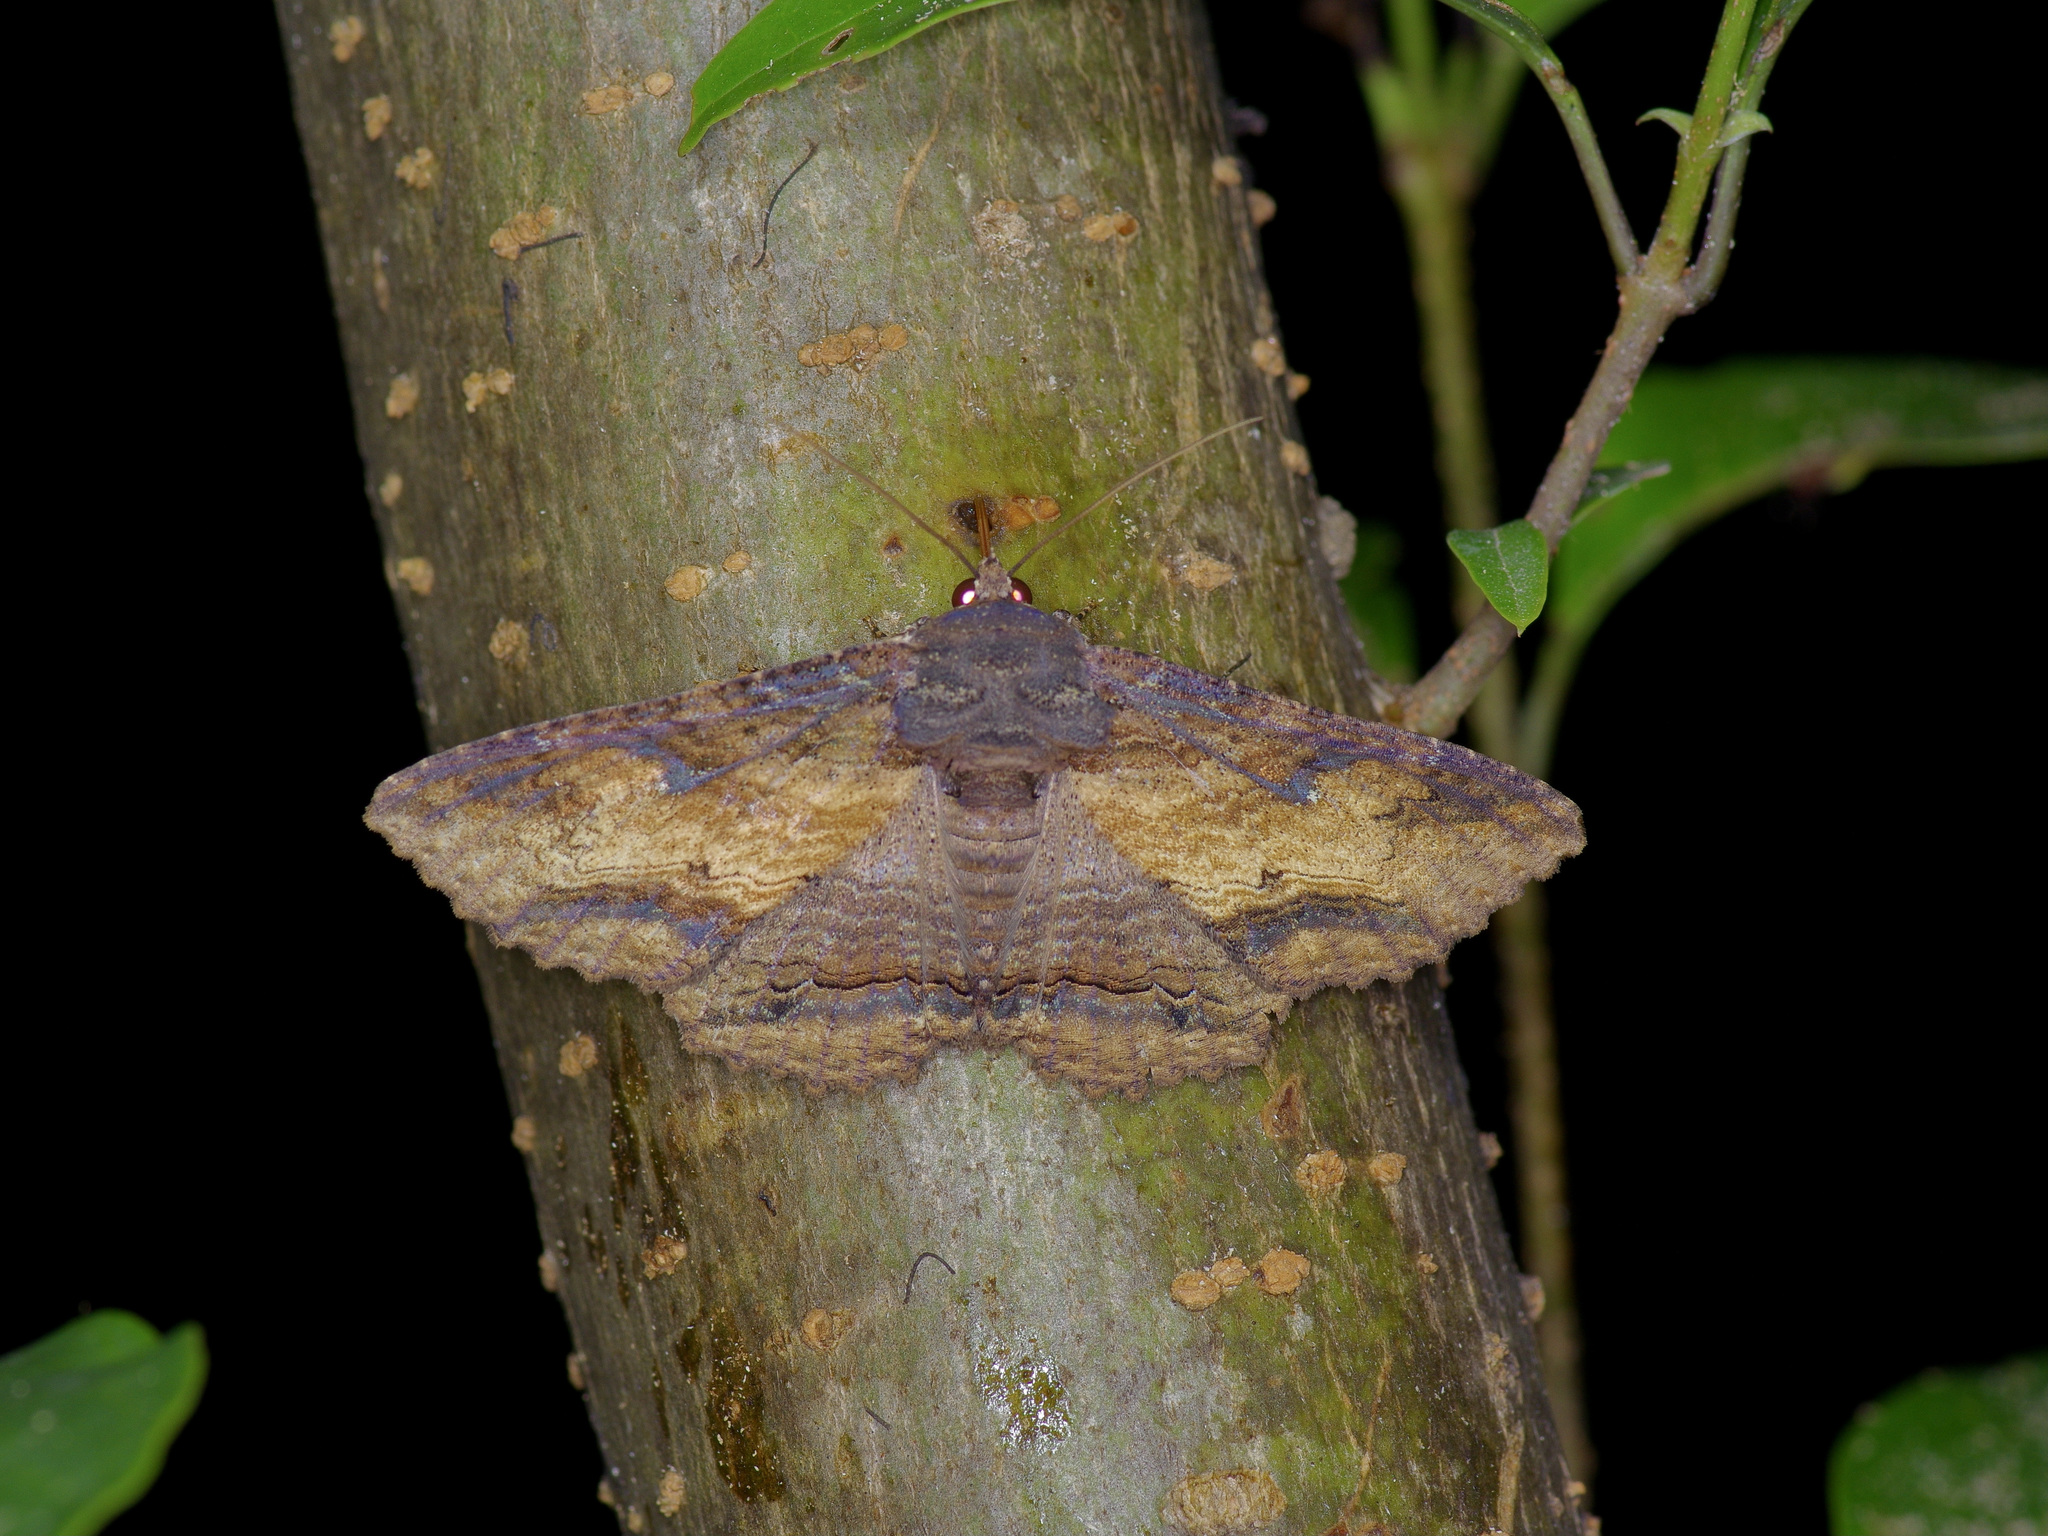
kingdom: Animalia
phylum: Arthropoda
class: Insecta
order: Lepidoptera
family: Erebidae
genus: Zale
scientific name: Zale lunata
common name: Lunate zale moth
